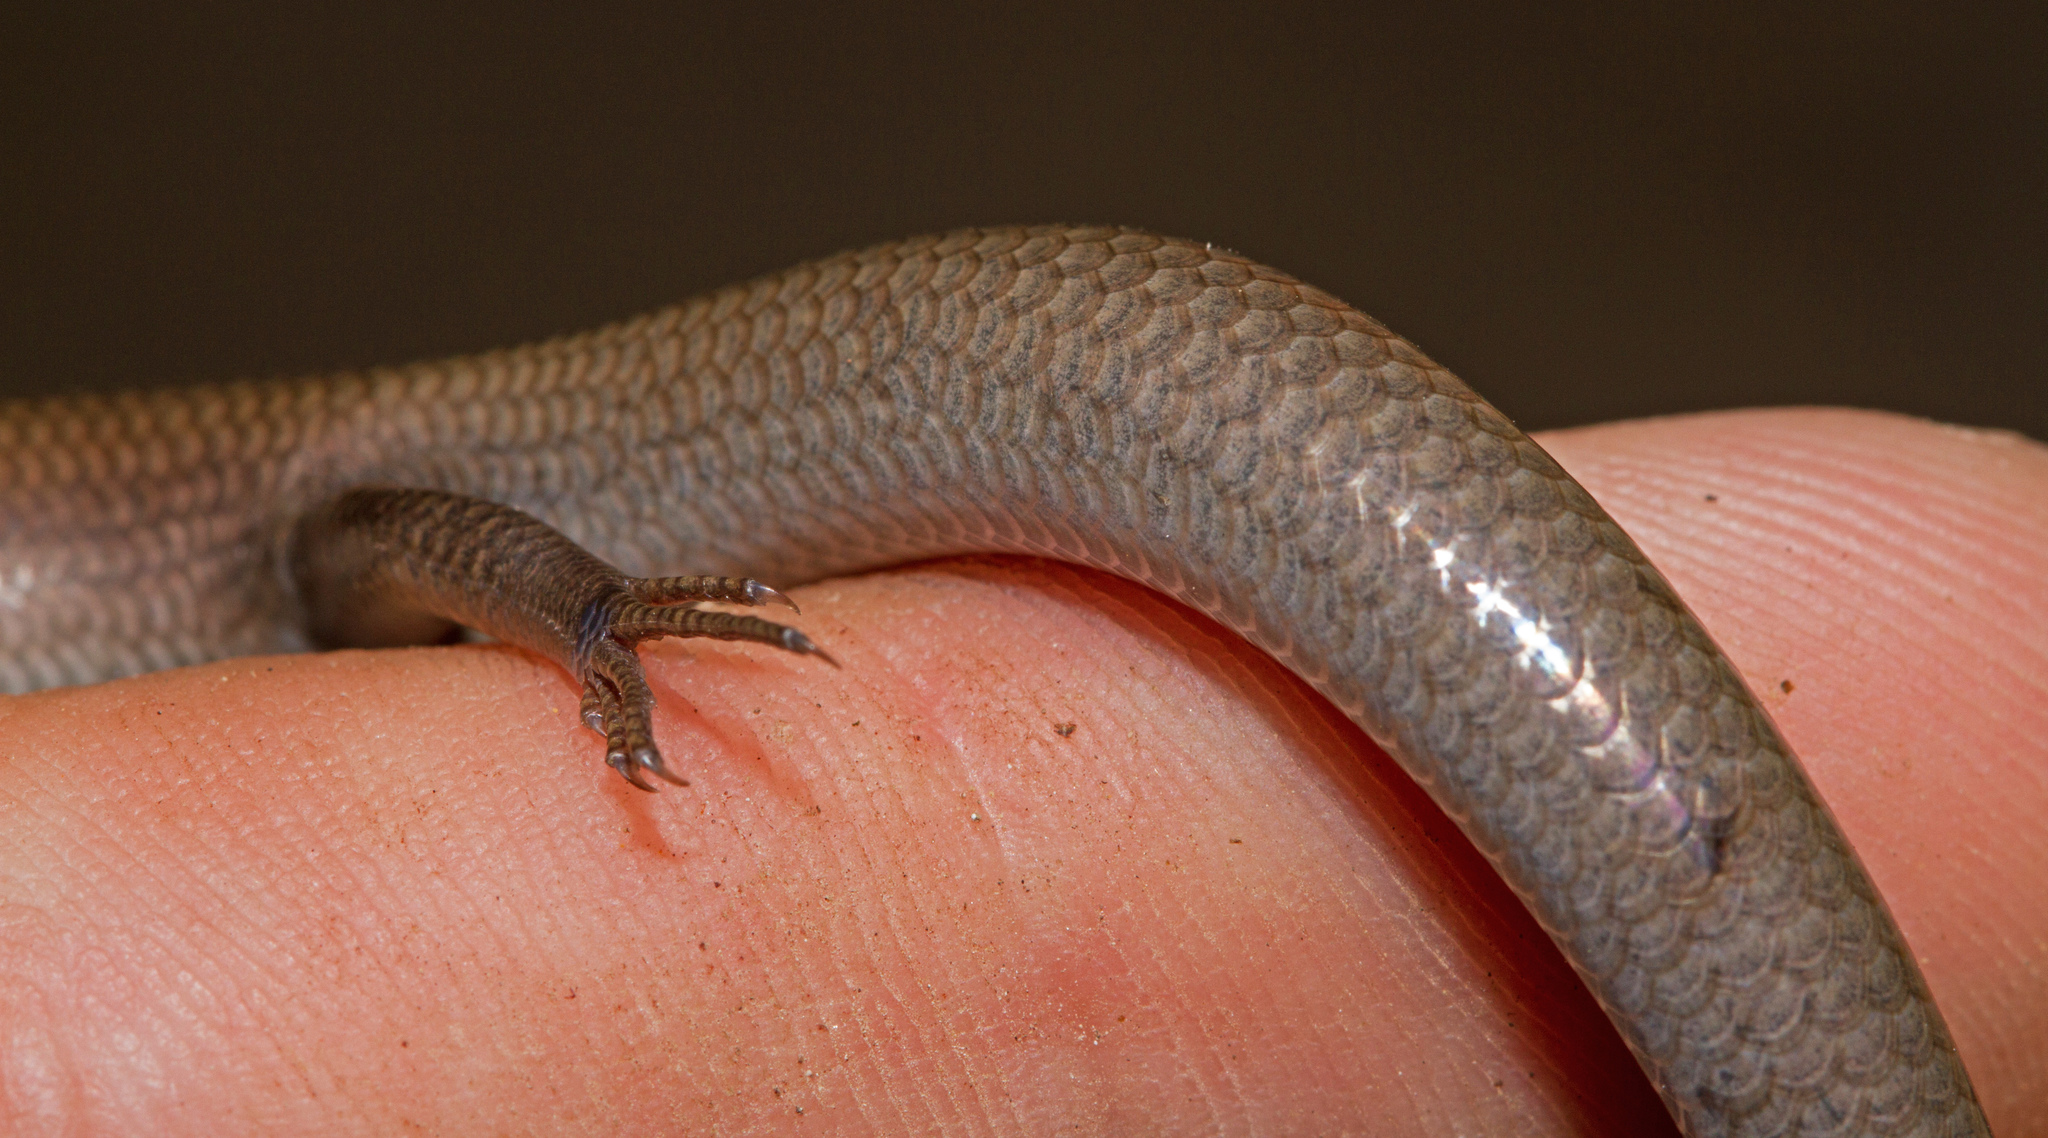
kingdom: Animalia
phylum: Chordata
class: Squamata
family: Scincidae
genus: Plestiodon
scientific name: Plestiodon tetragrammus
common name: Four-lined skink
